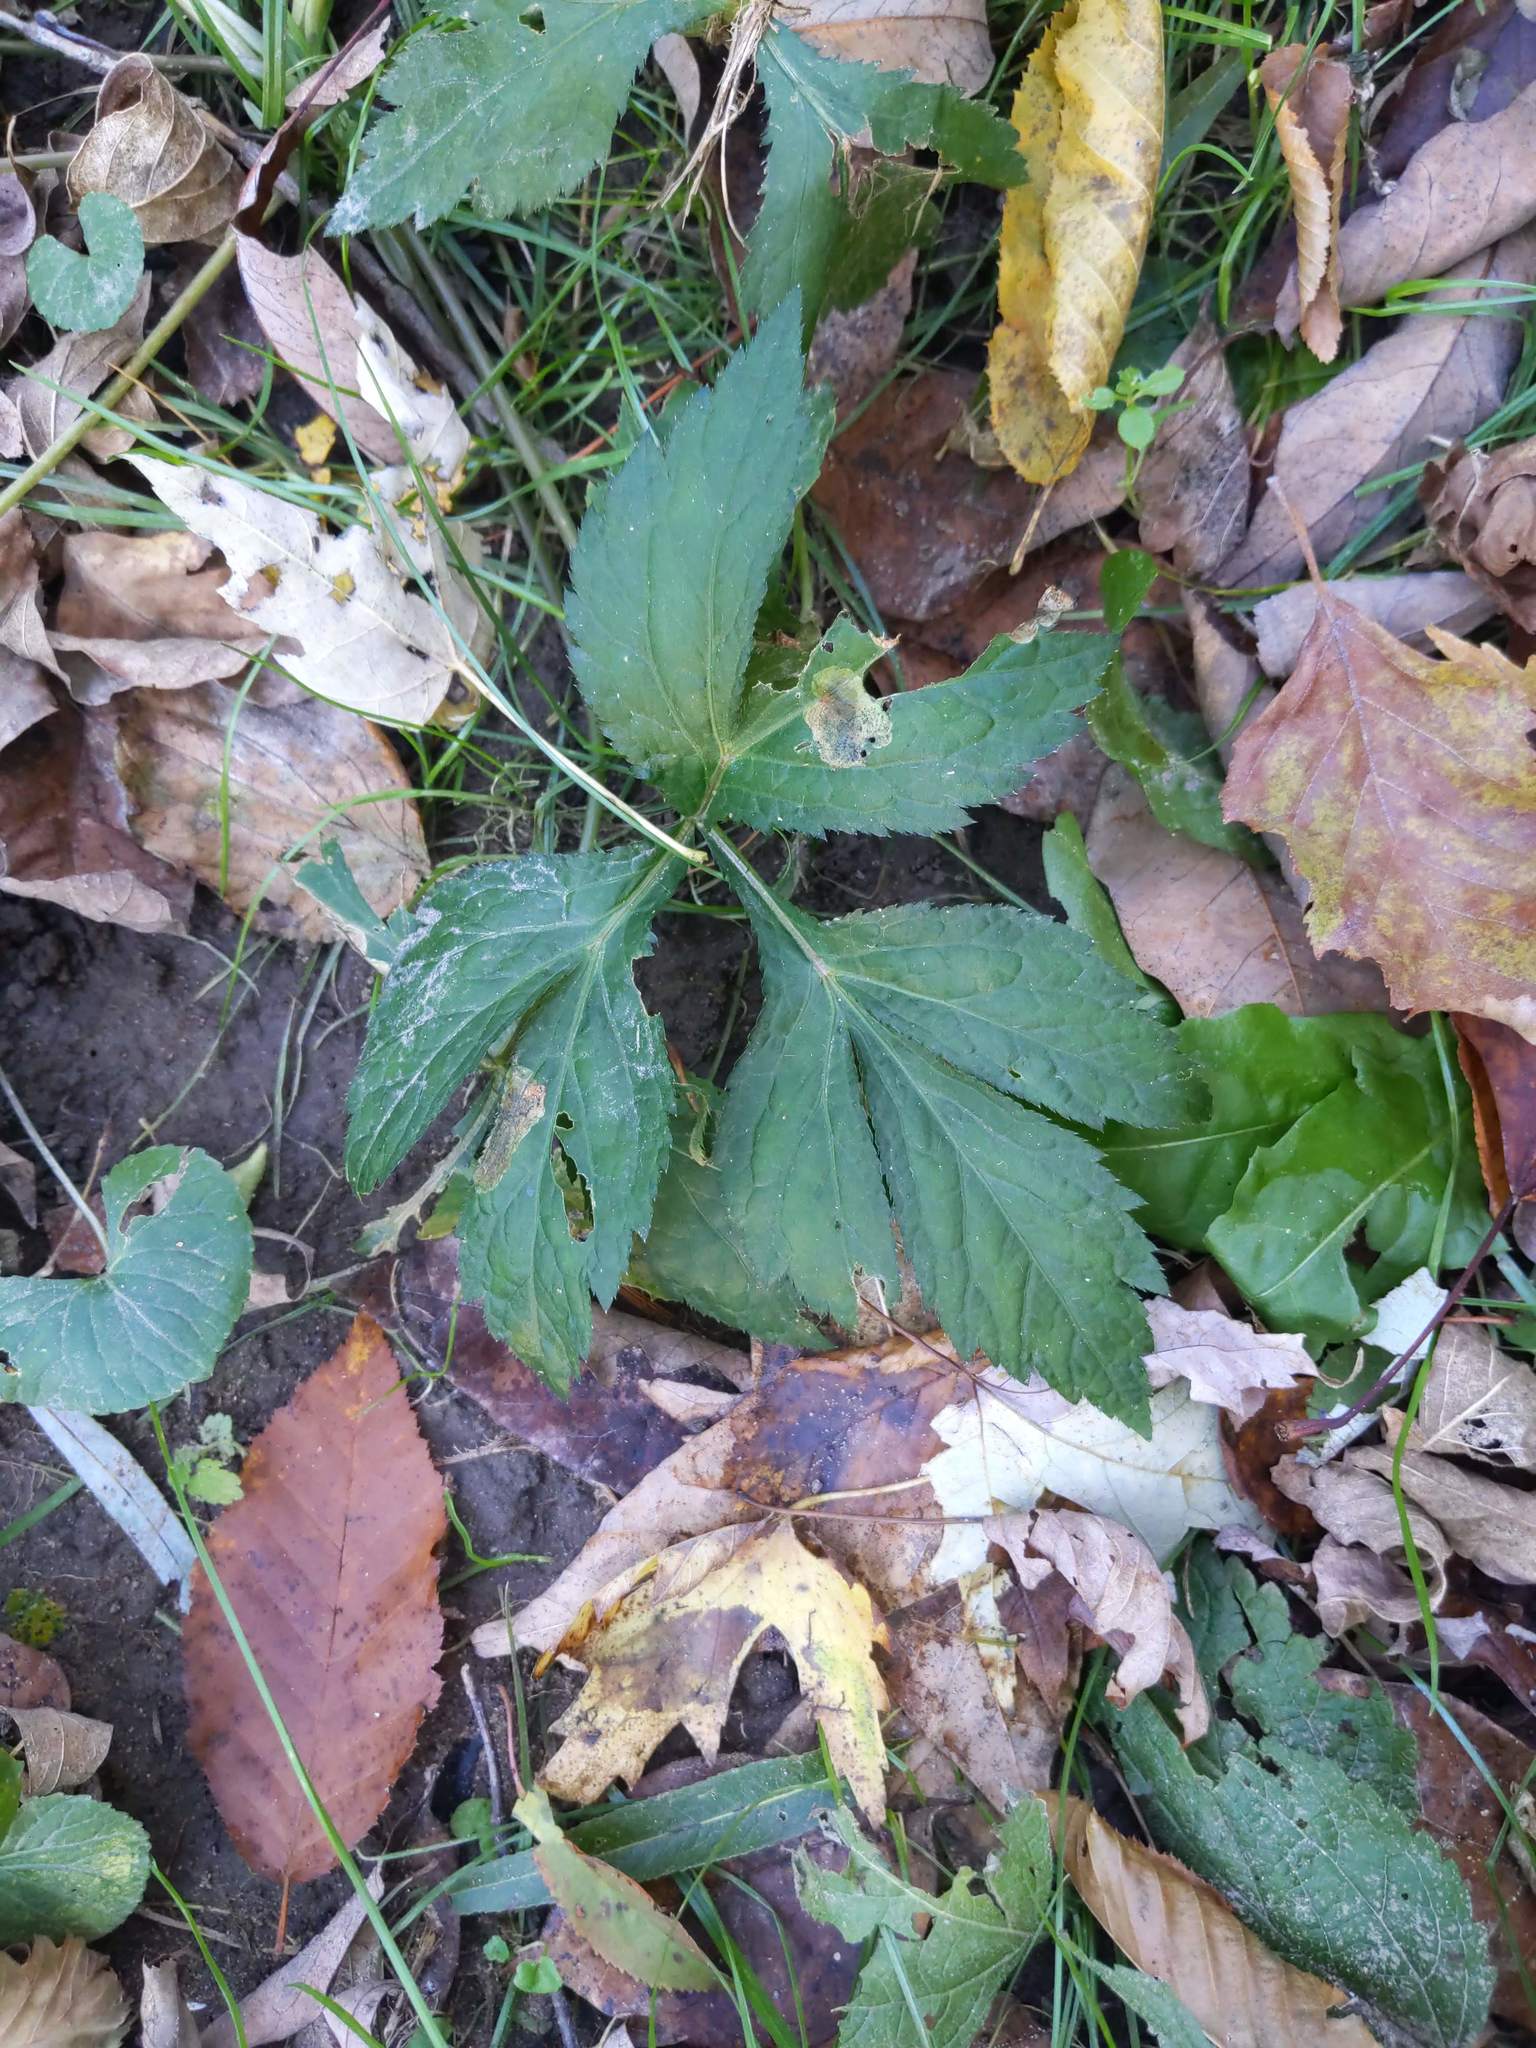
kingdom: Plantae
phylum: Tracheophyta
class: Magnoliopsida
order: Apiales
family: Apiaceae
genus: Cryptotaenia
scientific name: Cryptotaenia canadensis
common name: Honewort
